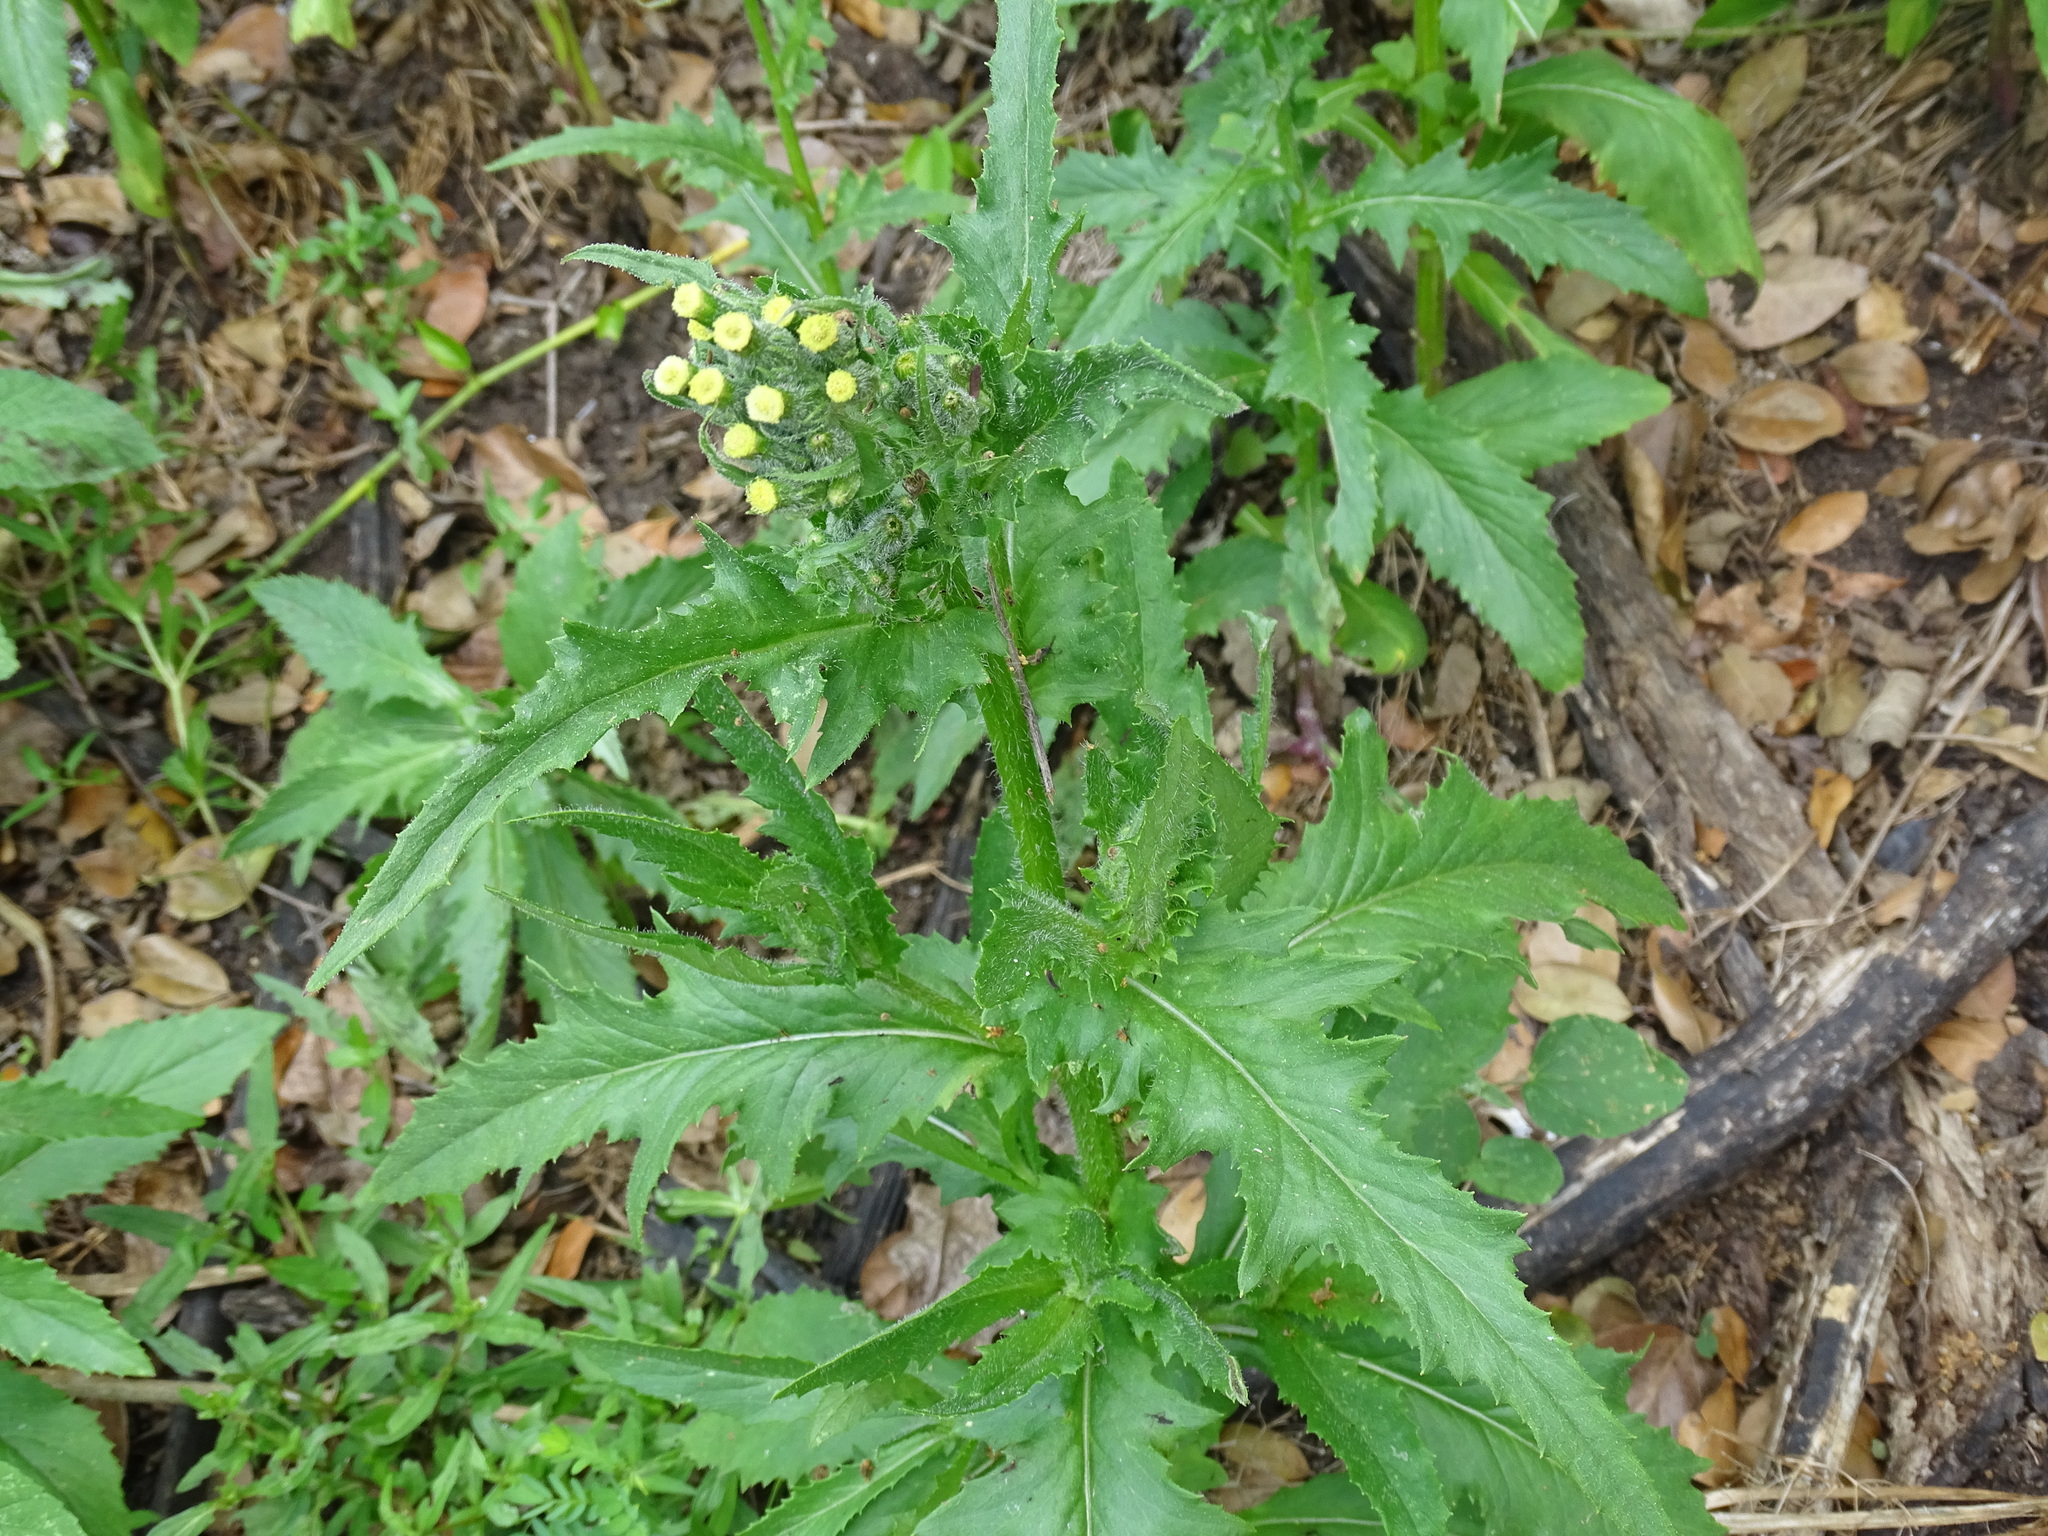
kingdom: Plantae
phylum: Tracheophyta
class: Magnoliopsida
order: Asterales
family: Asteraceae
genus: Erechtites
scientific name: Erechtites hieraciifolius
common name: American burnweed
